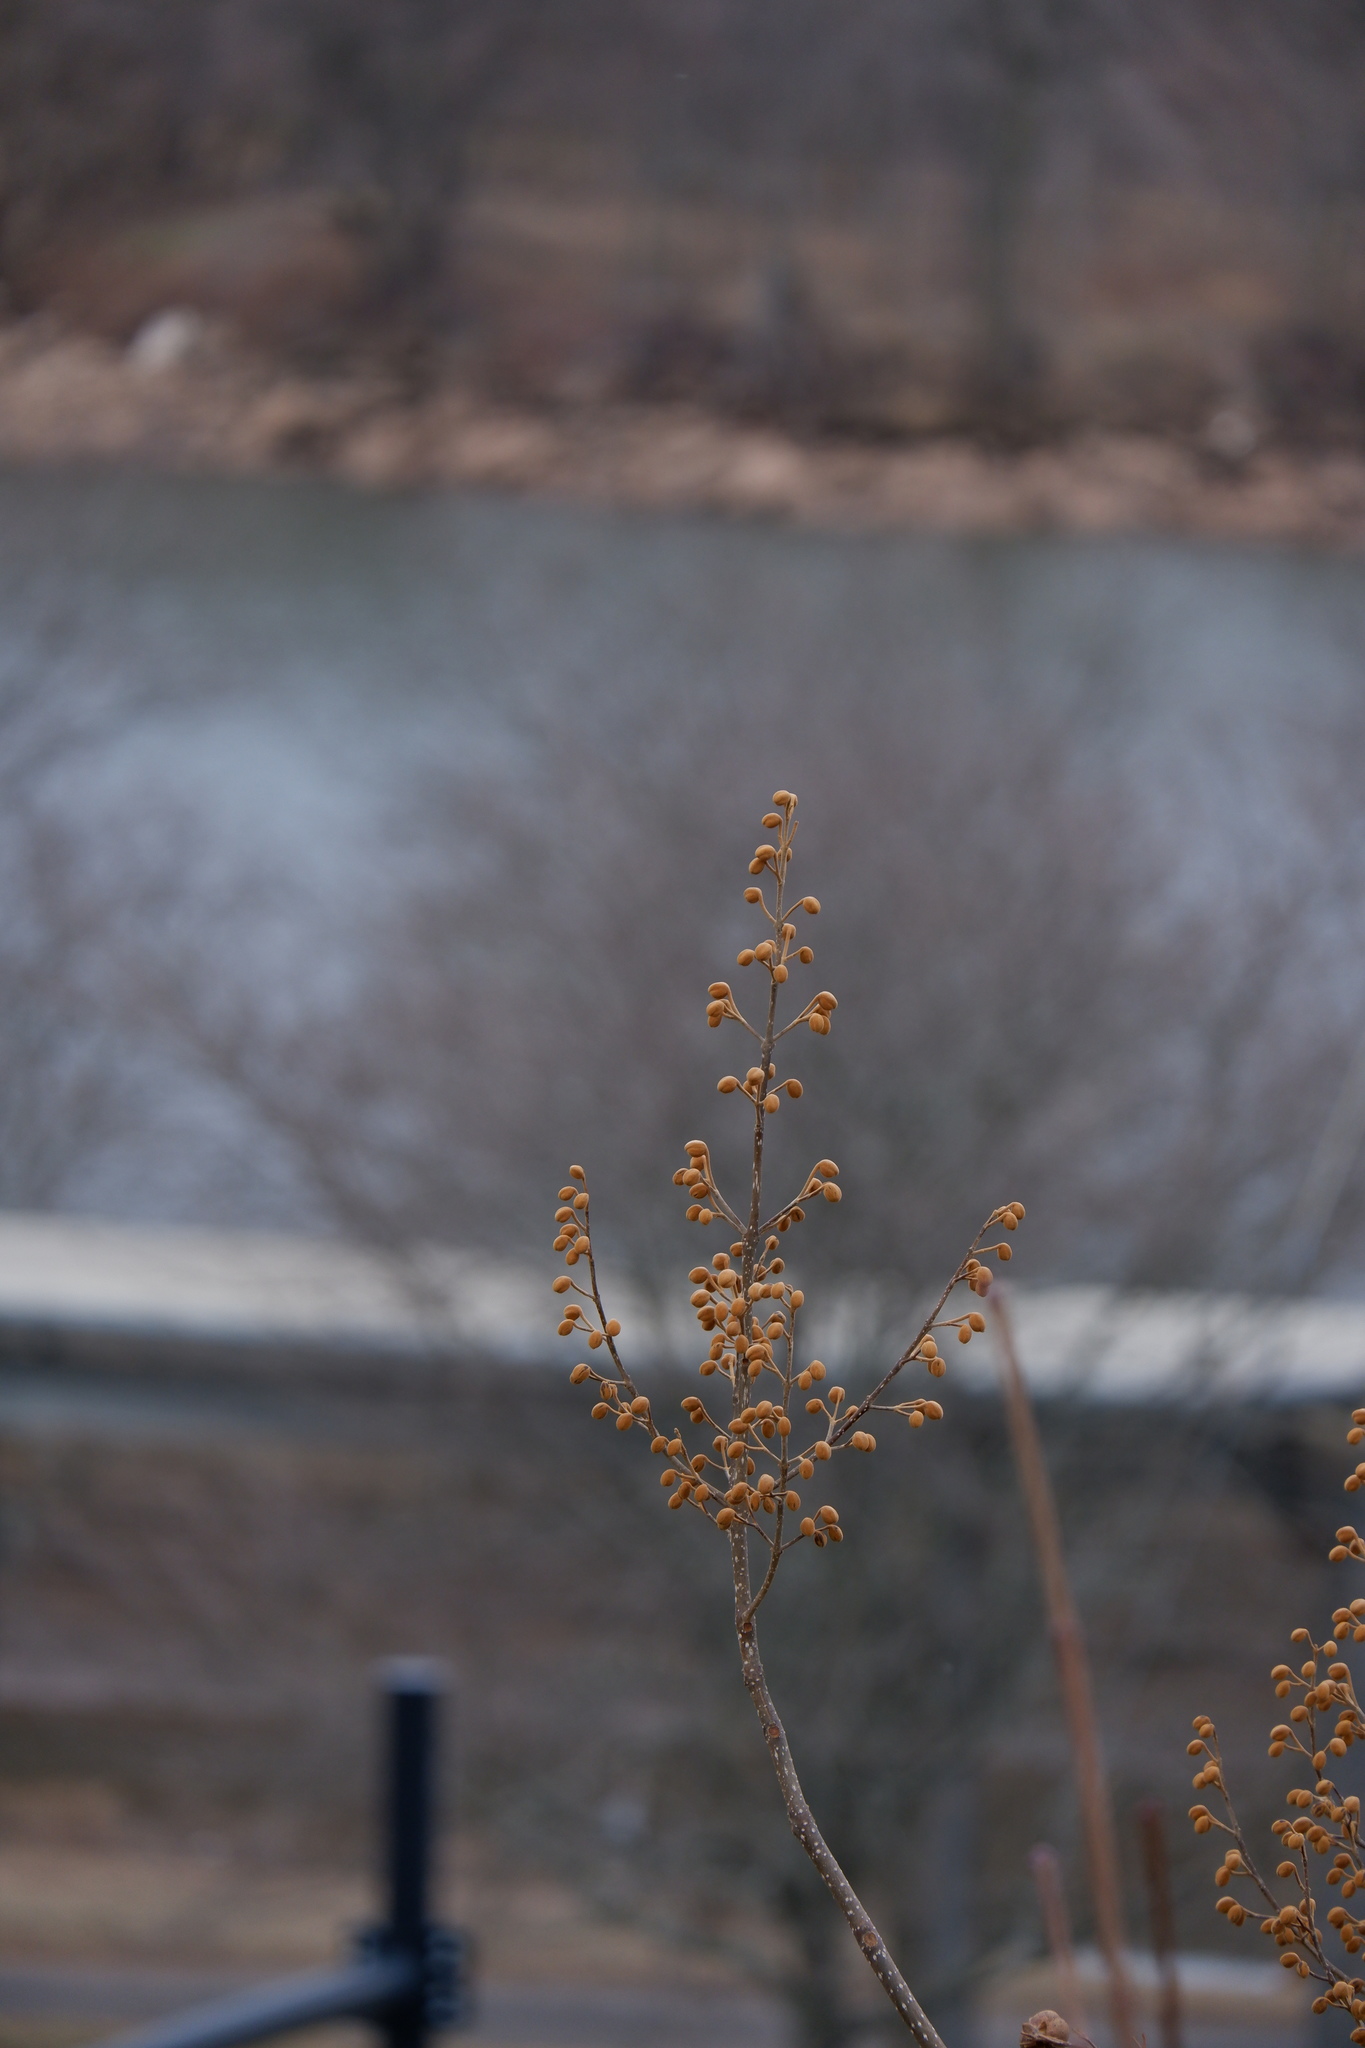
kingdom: Plantae
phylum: Tracheophyta
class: Magnoliopsida
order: Lamiales
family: Paulowniaceae
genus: Paulownia
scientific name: Paulownia tomentosa
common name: Foxglove-tree
